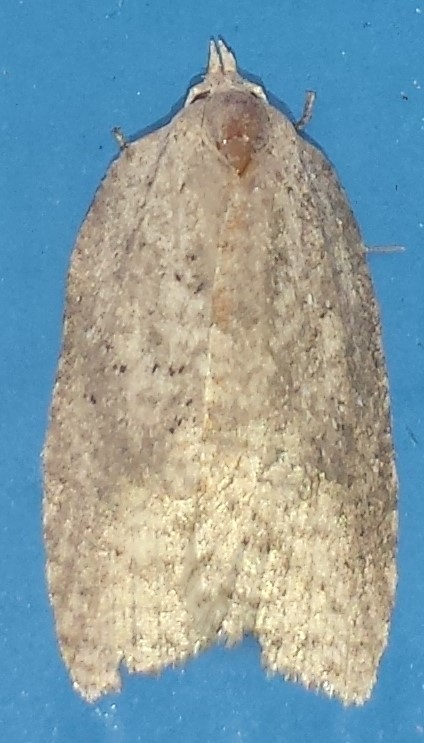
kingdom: Animalia
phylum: Arthropoda
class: Insecta
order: Lepidoptera
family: Tortricidae
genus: Amorbia
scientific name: Amorbia humerosana
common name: White-lined leafroller moth
